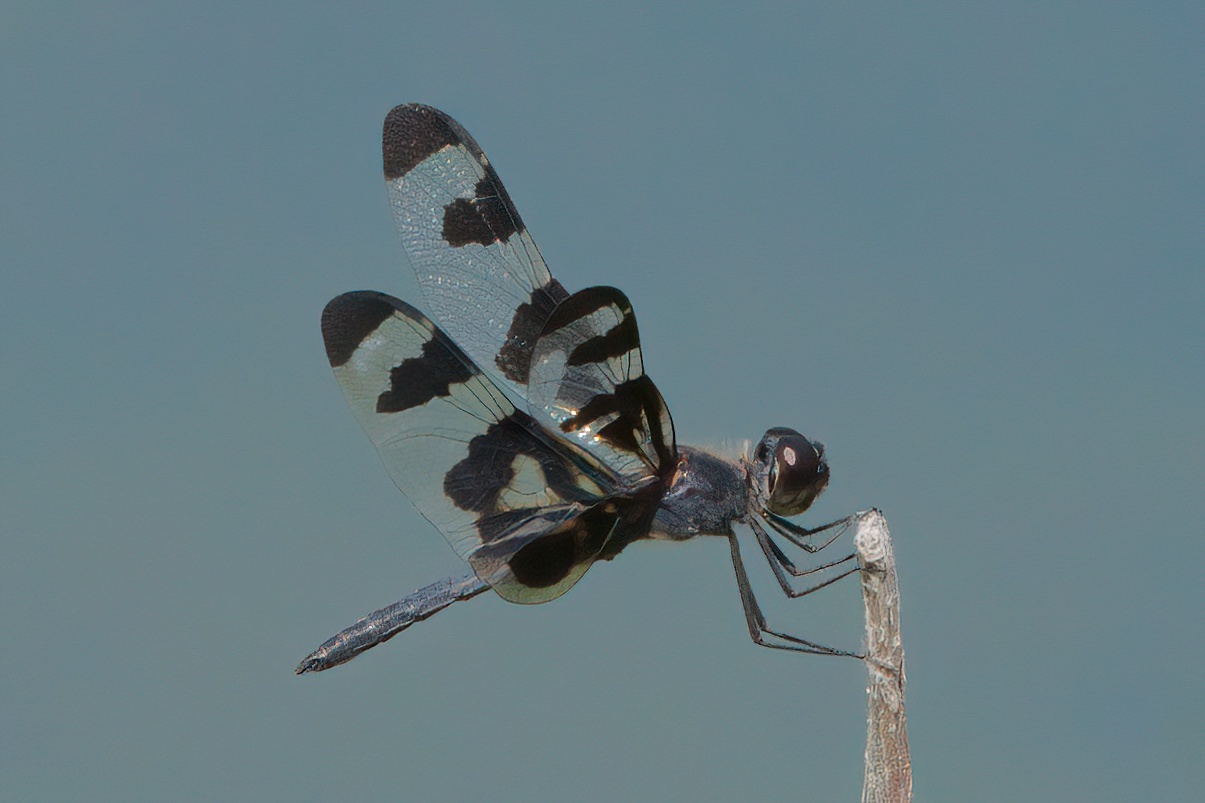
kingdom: Animalia
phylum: Arthropoda
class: Insecta
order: Odonata
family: Libellulidae
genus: Celithemis
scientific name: Celithemis fasciata
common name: Banded pennant
